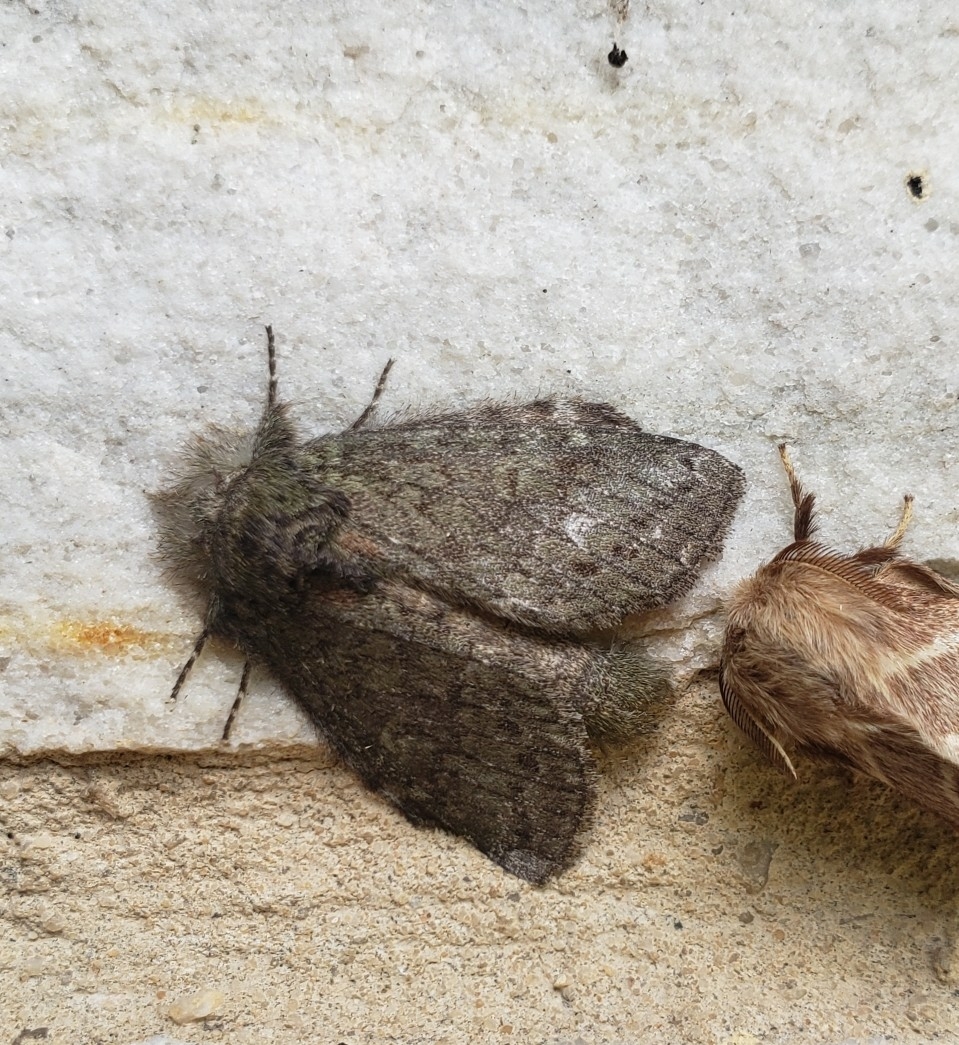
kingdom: Animalia
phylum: Arthropoda
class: Insecta
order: Lepidoptera
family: Notodontidae
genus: Disphragis
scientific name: Disphragis Cecrita guttivitta
